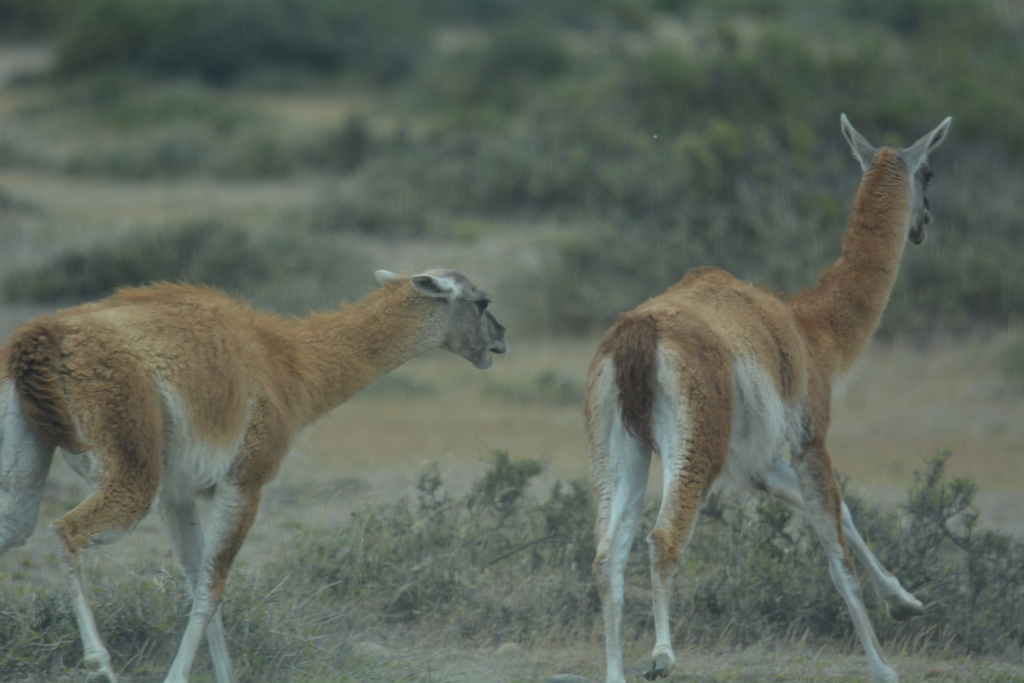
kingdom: Animalia
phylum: Chordata
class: Mammalia
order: Artiodactyla
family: Camelidae
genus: Lama
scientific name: Lama glama
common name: Llama
